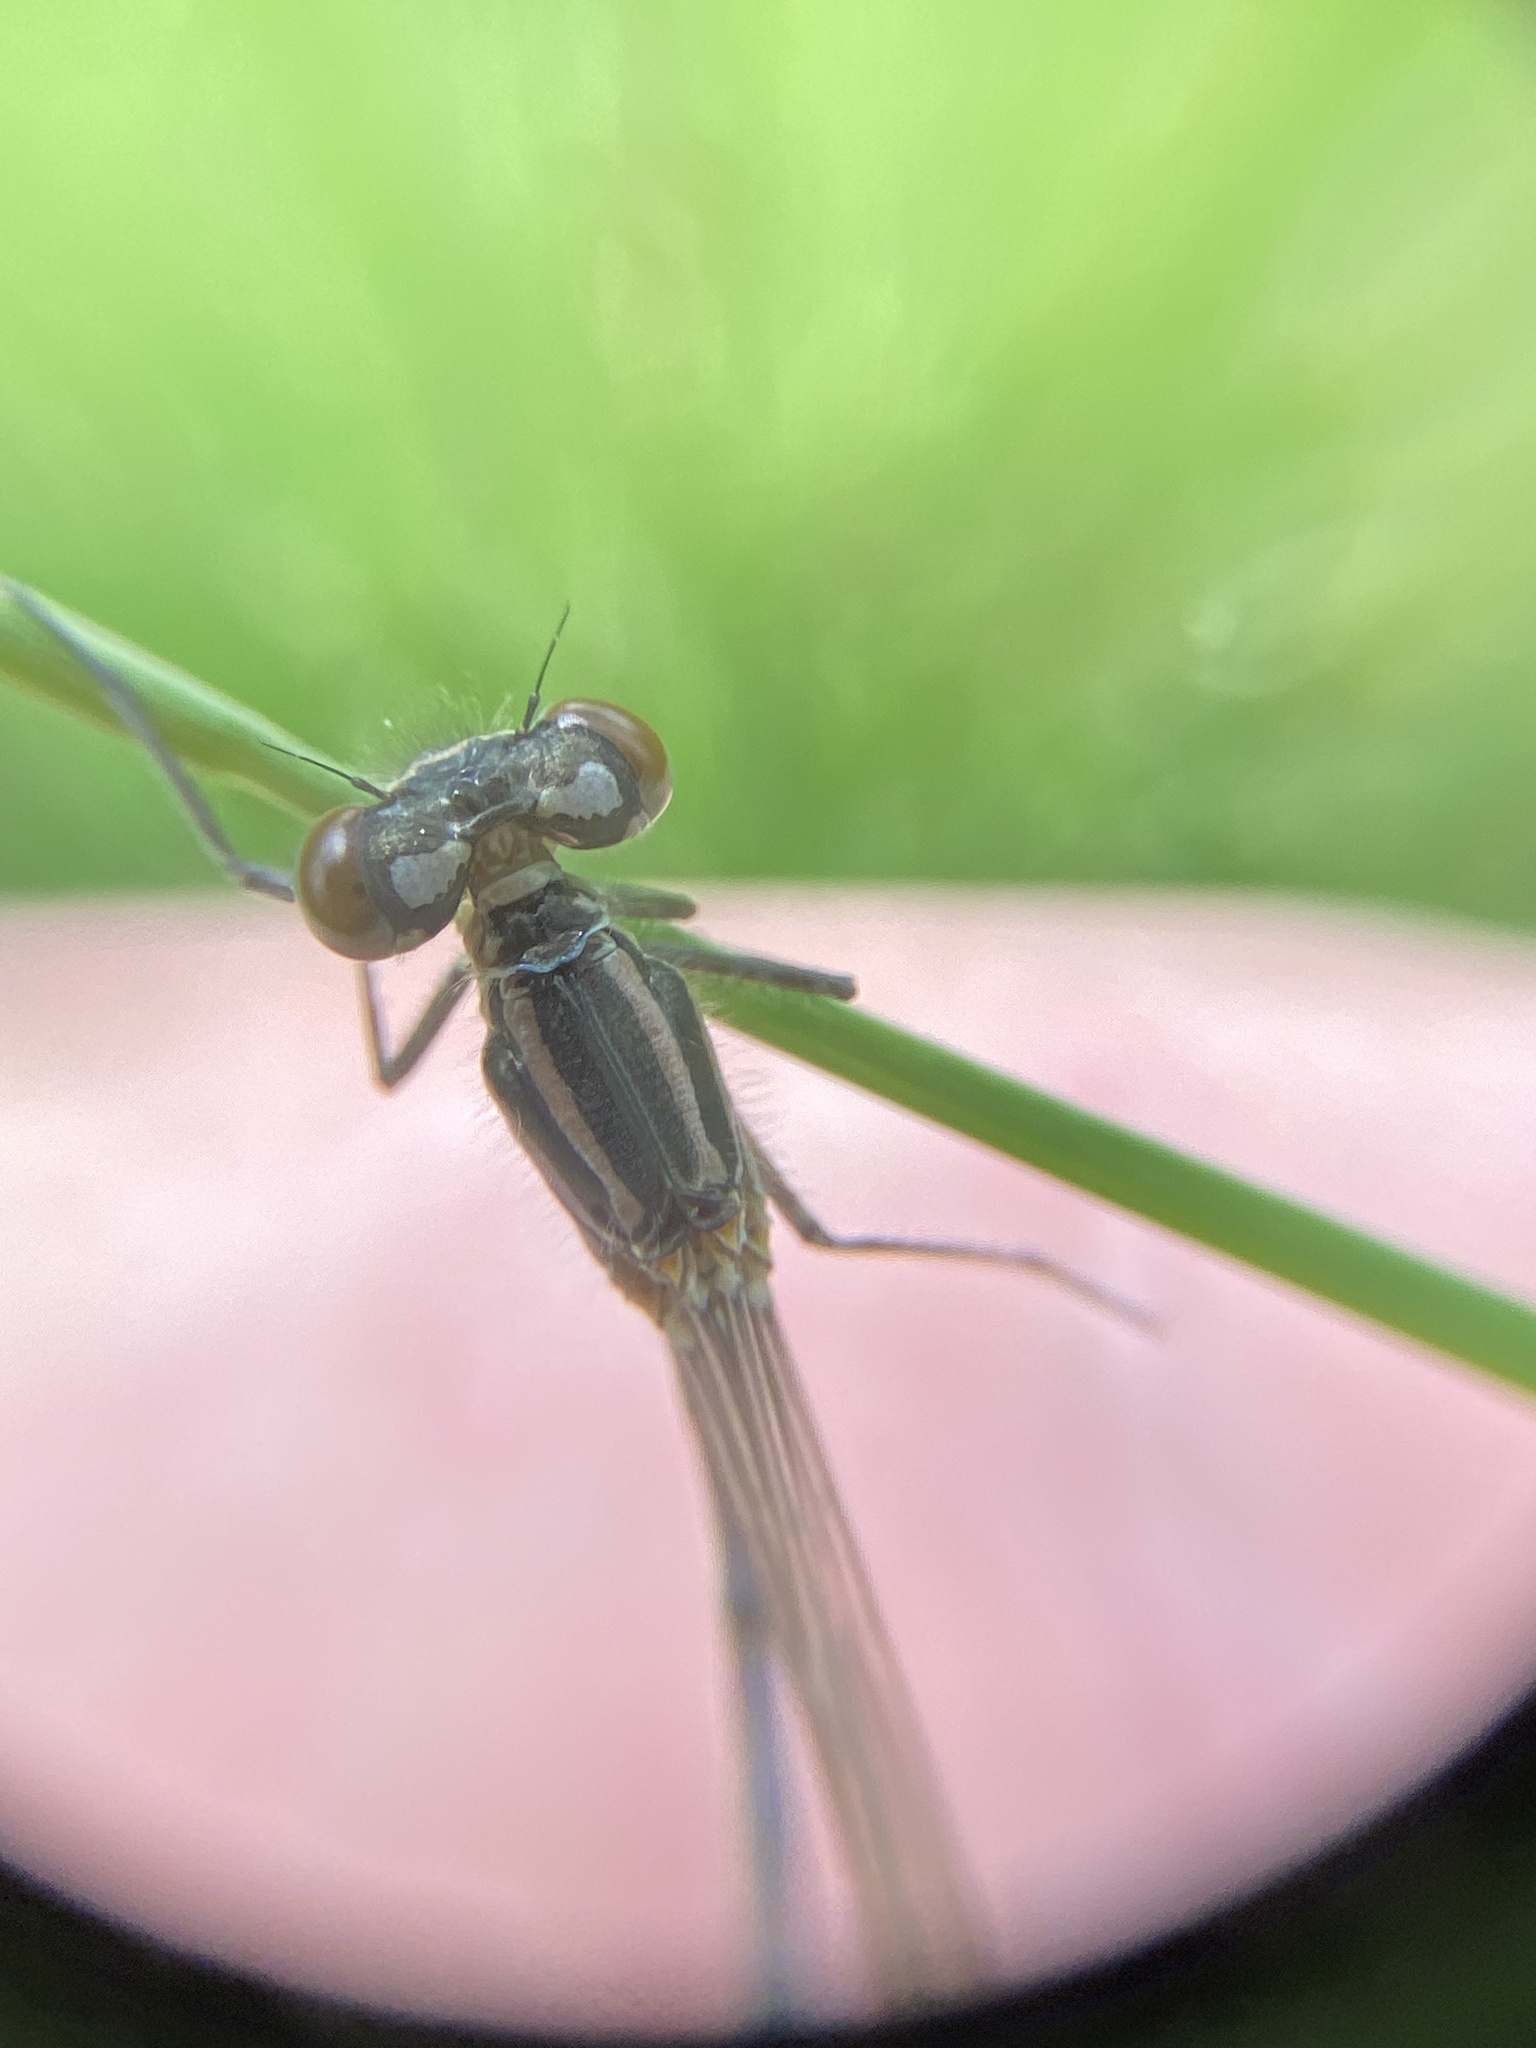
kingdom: Animalia
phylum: Arthropoda
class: Insecta
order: Odonata
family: Coenagrionidae
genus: Coenagrion
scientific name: Coenagrion puella
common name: Azure damselfly
